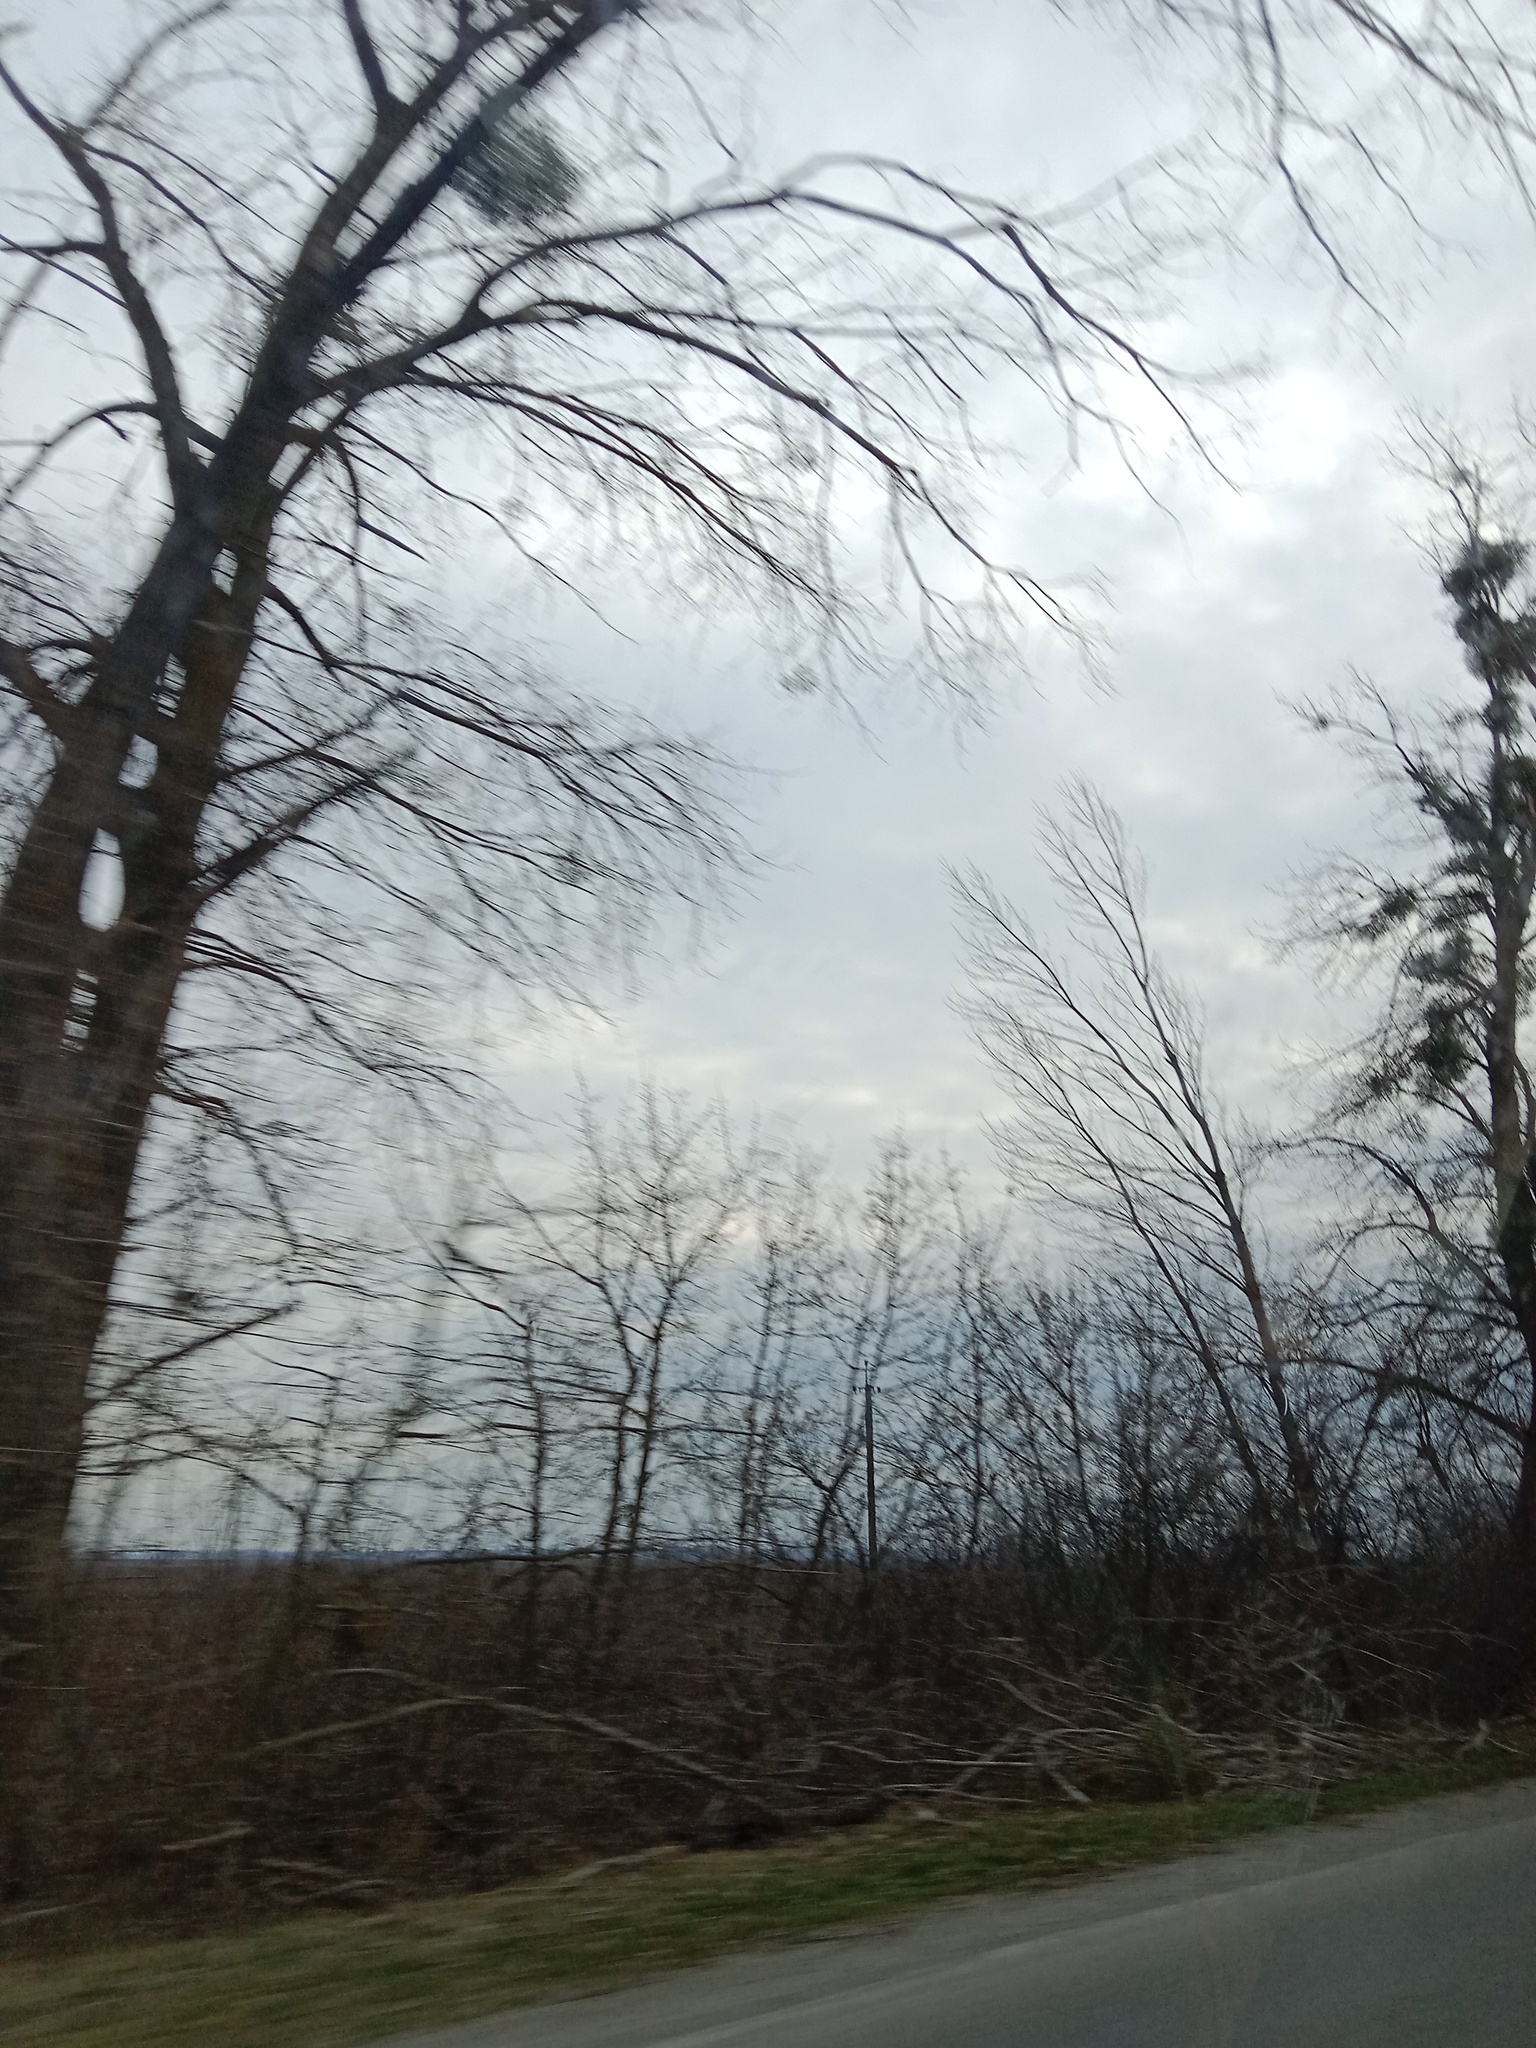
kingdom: Plantae
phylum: Tracheophyta
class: Magnoliopsida
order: Santalales
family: Viscaceae
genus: Viscum
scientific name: Viscum album
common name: Mistletoe
